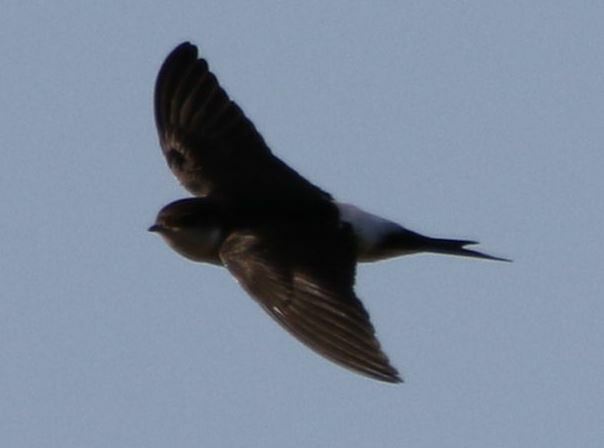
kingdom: Animalia
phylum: Chordata
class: Aves
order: Passeriformes
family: Hirundinidae
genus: Delichon
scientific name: Delichon urbicum
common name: Common house martin
